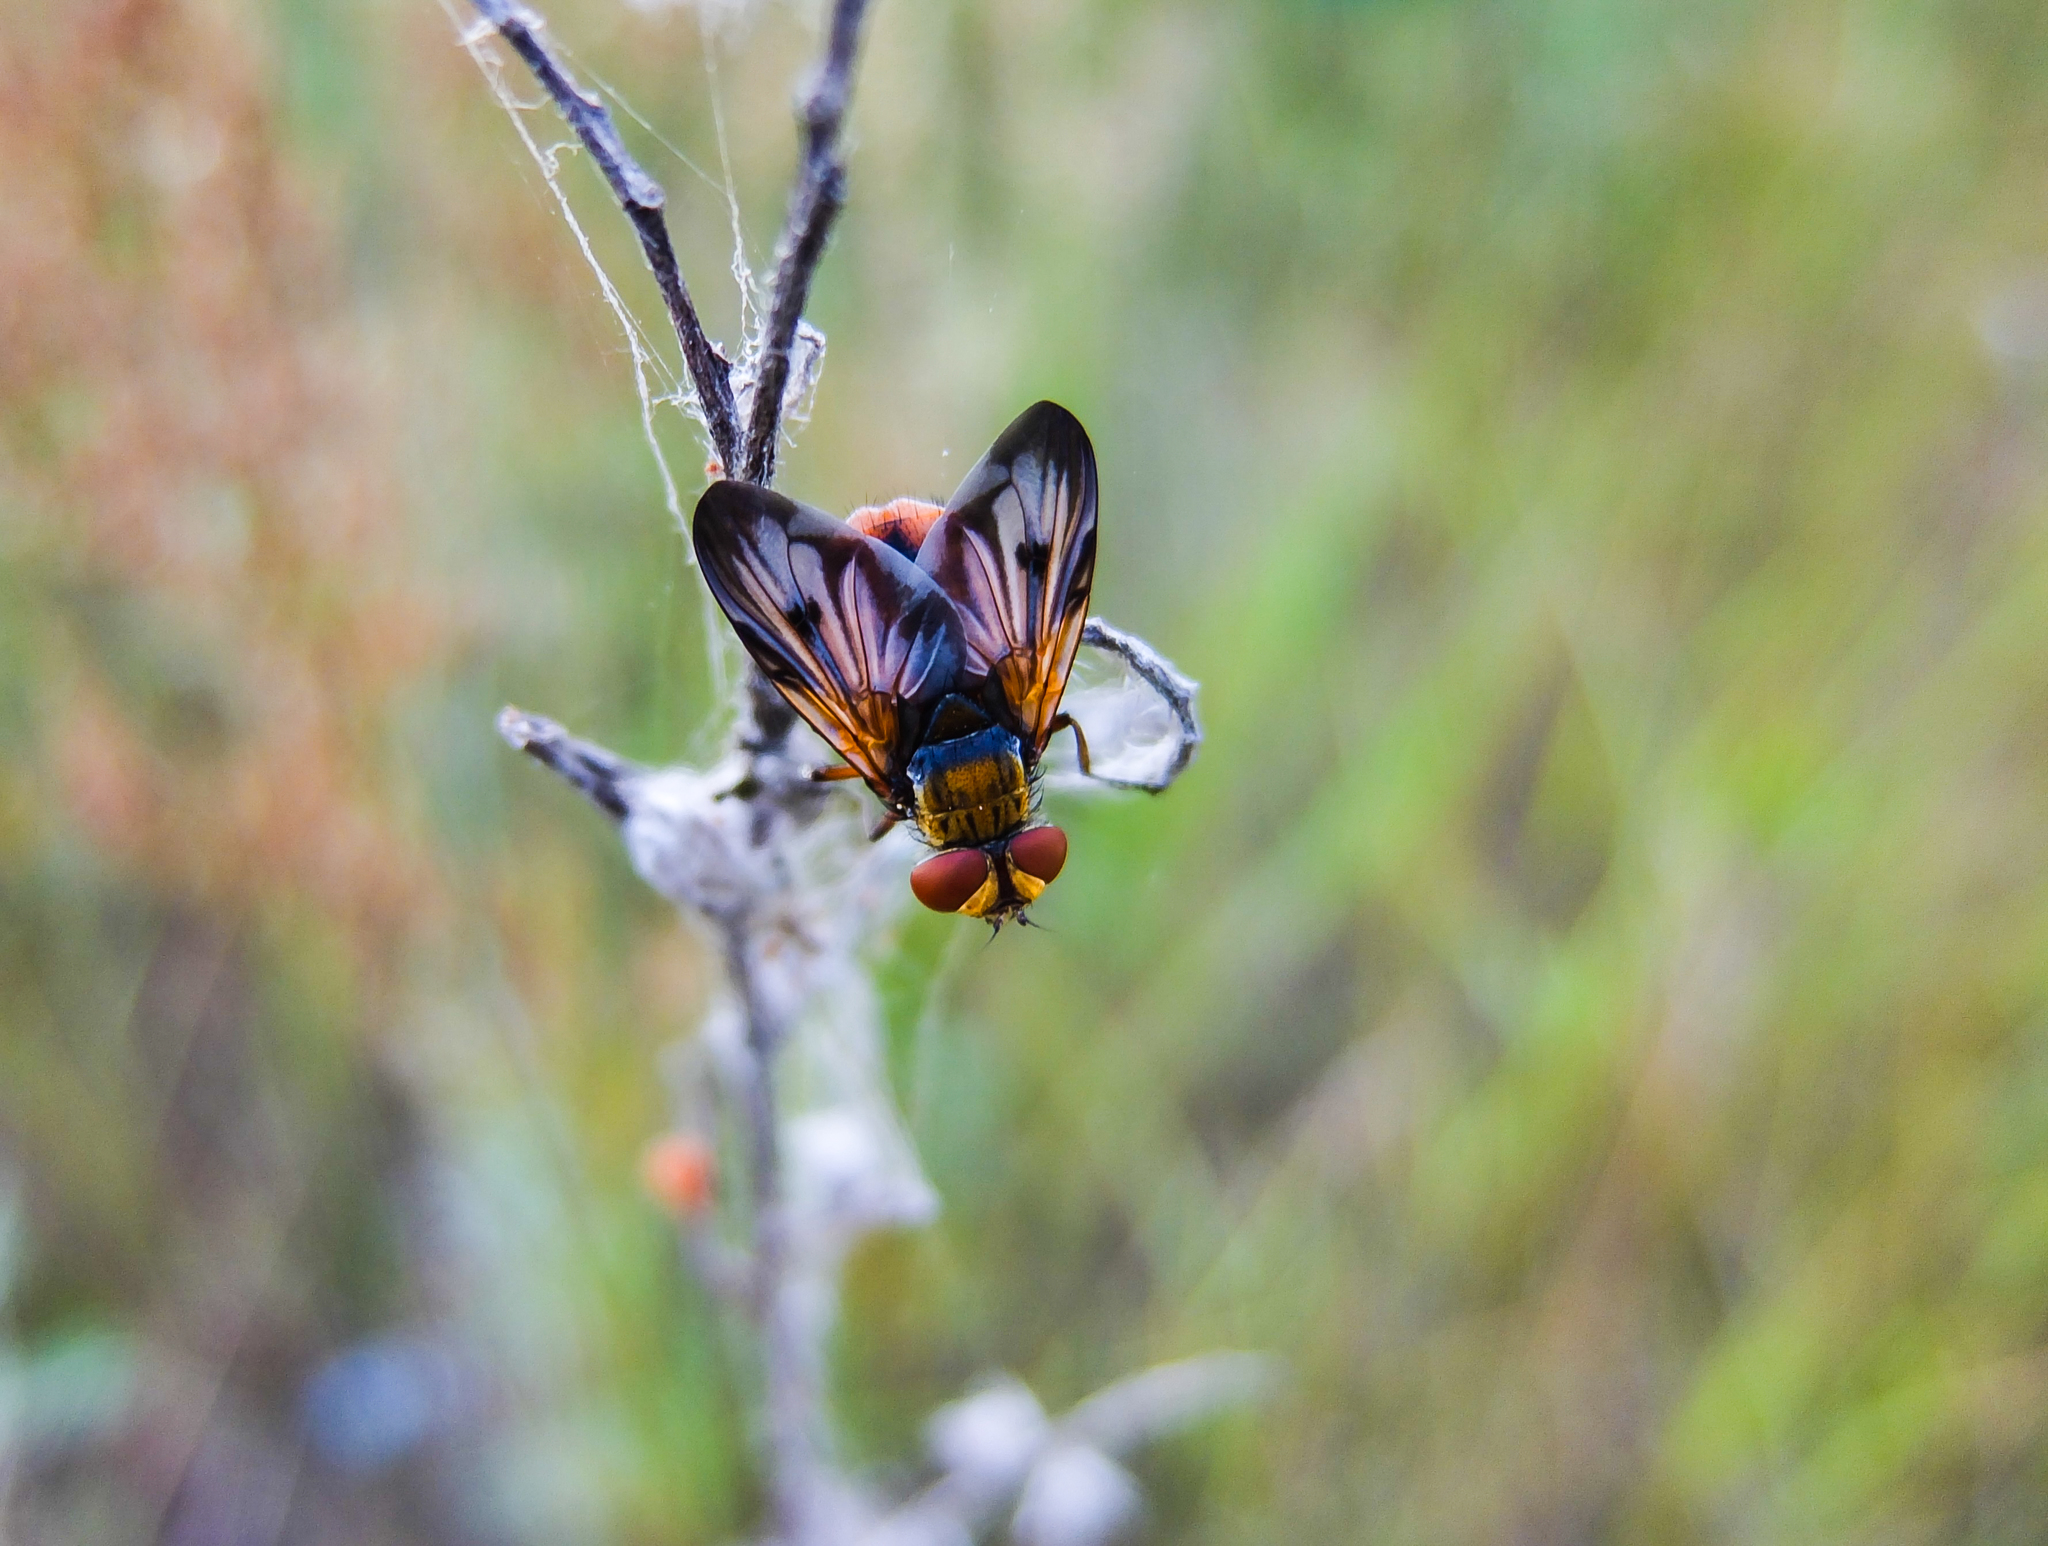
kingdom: Animalia
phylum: Arthropoda
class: Insecta
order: Diptera
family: Tachinidae
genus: Ectophasia
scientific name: Ectophasia crassipennis
